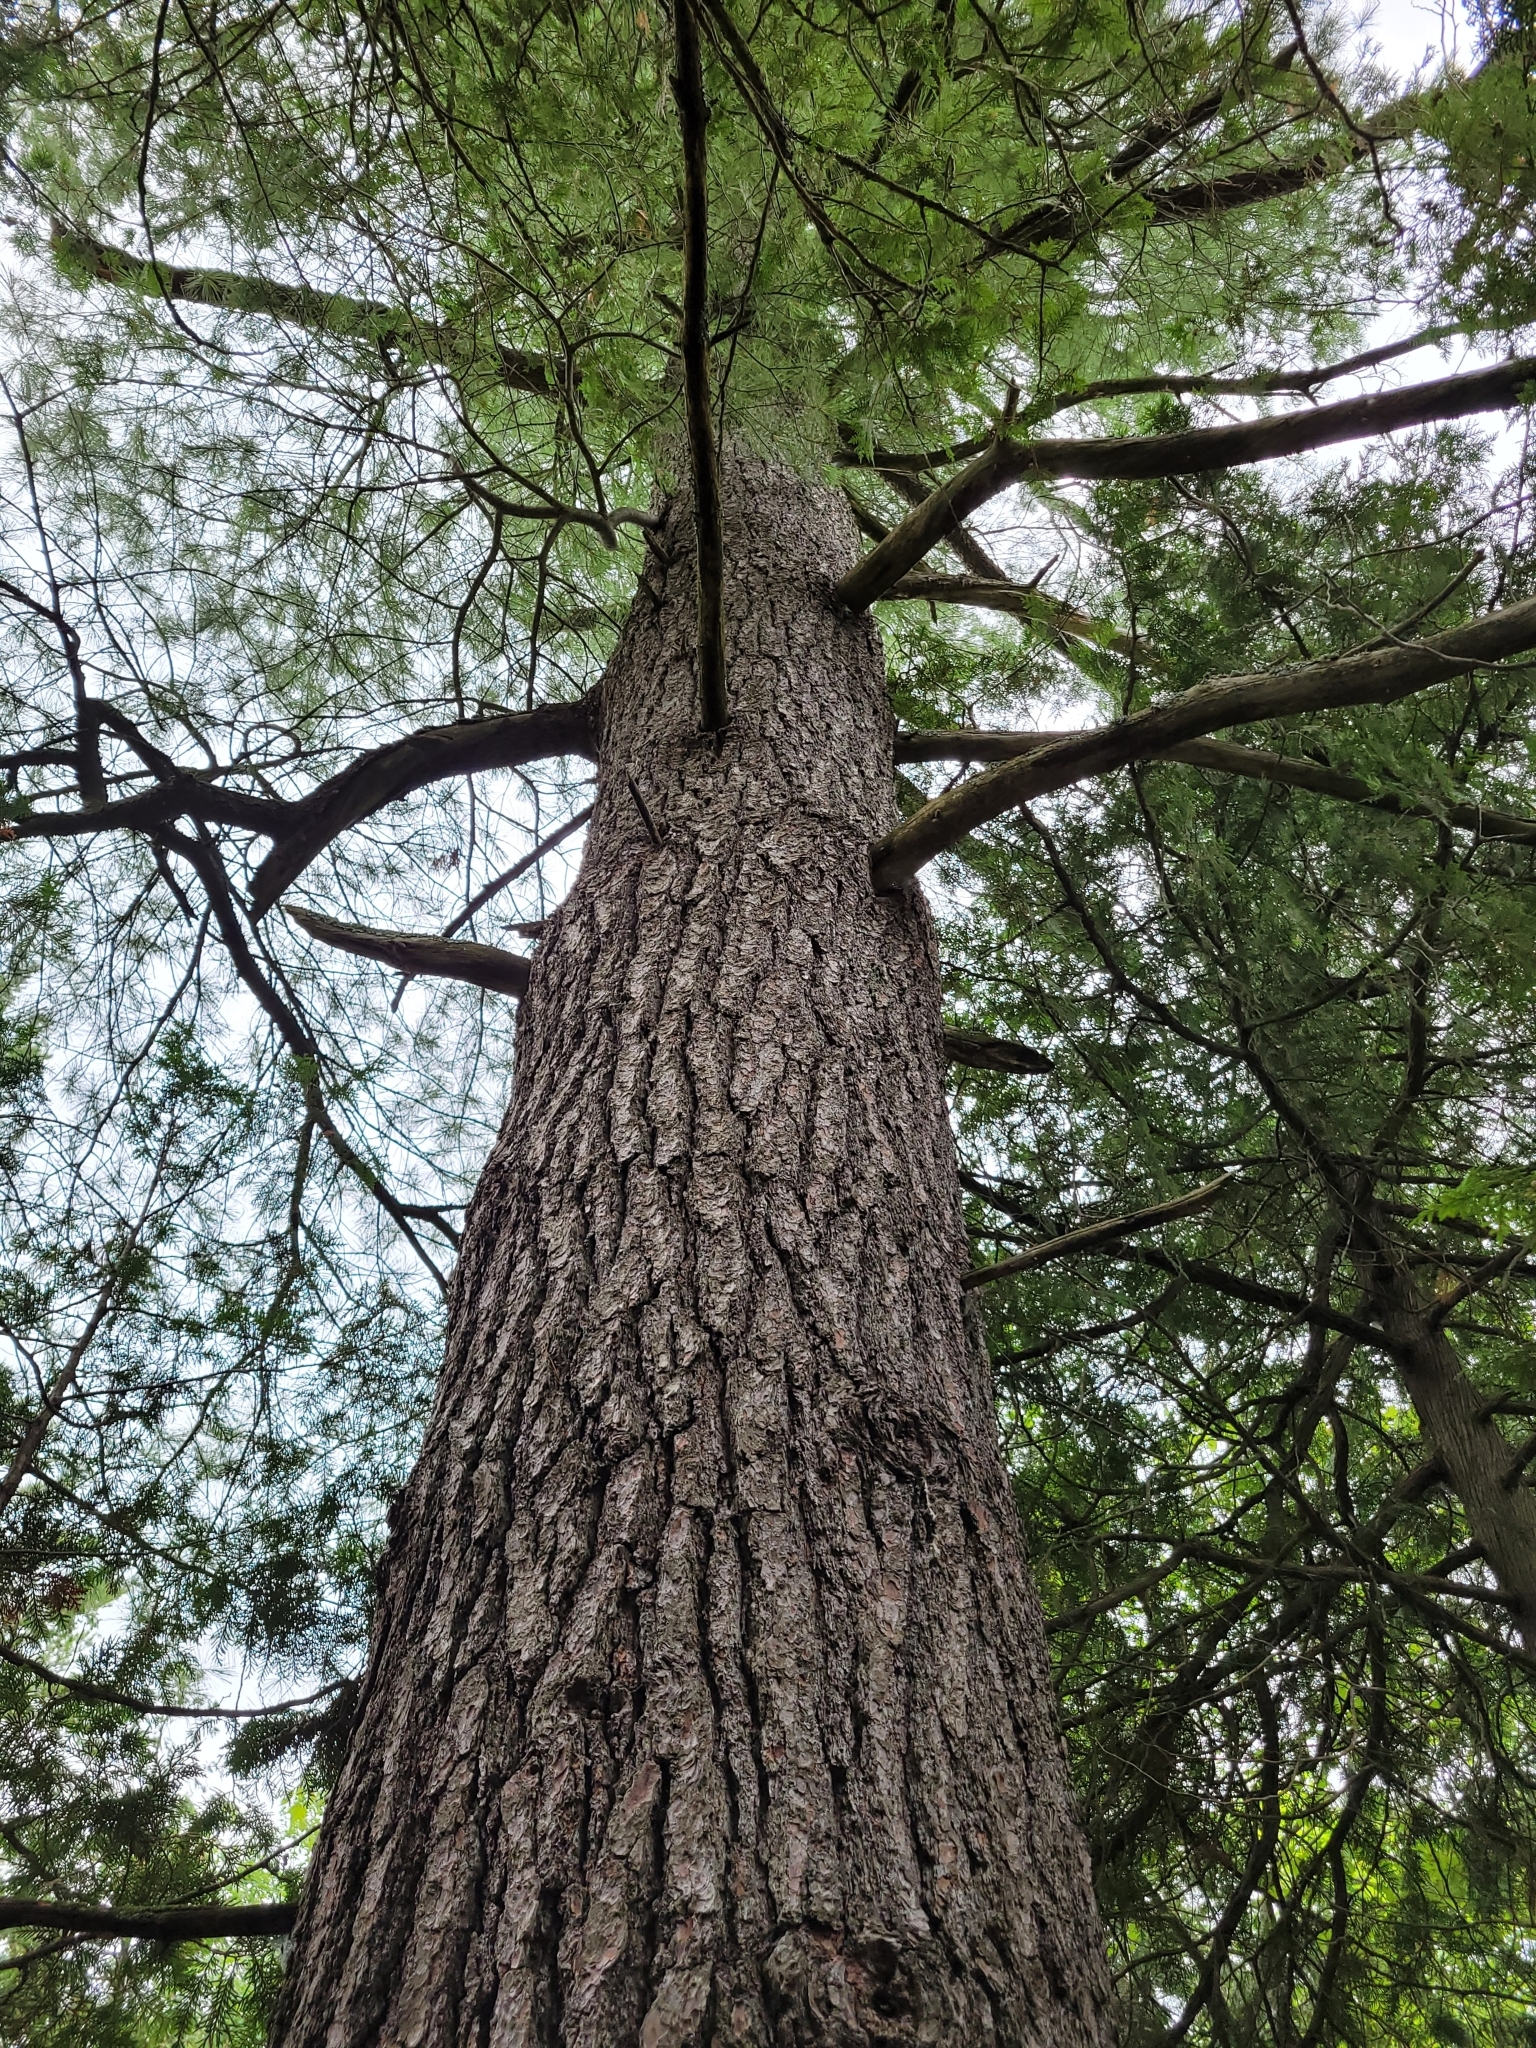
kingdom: Plantae
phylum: Tracheophyta
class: Pinopsida
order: Pinales
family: Pinaceae
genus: Pinus
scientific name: Pinus strobus
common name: Weymouth pine
